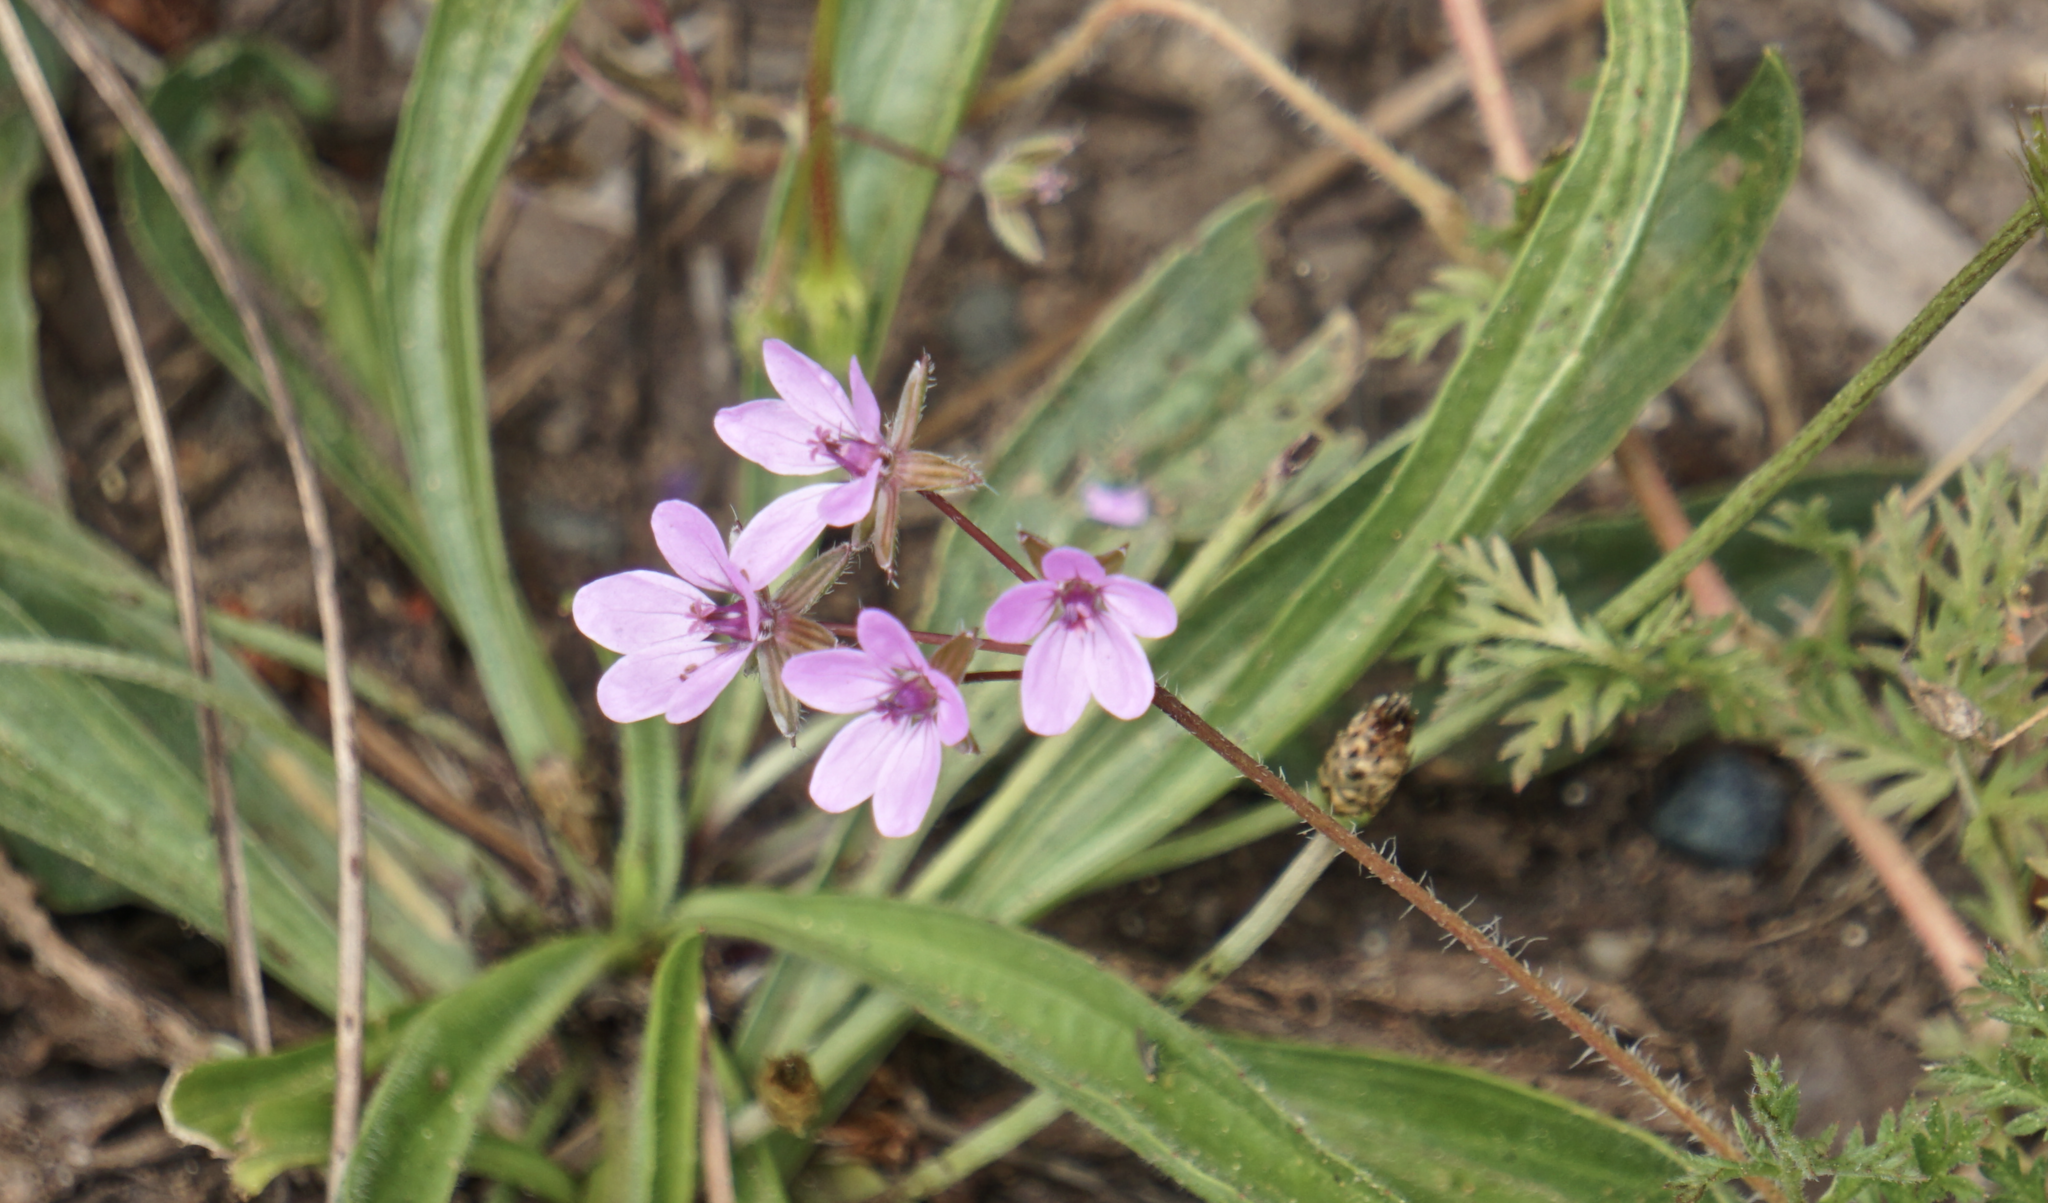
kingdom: Plantae
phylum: Tracheophyta
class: Magnoliopsida
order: Geraniales
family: Geraniaceae
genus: Erodium
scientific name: Erodium cicutarium
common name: Common stork's-bill
